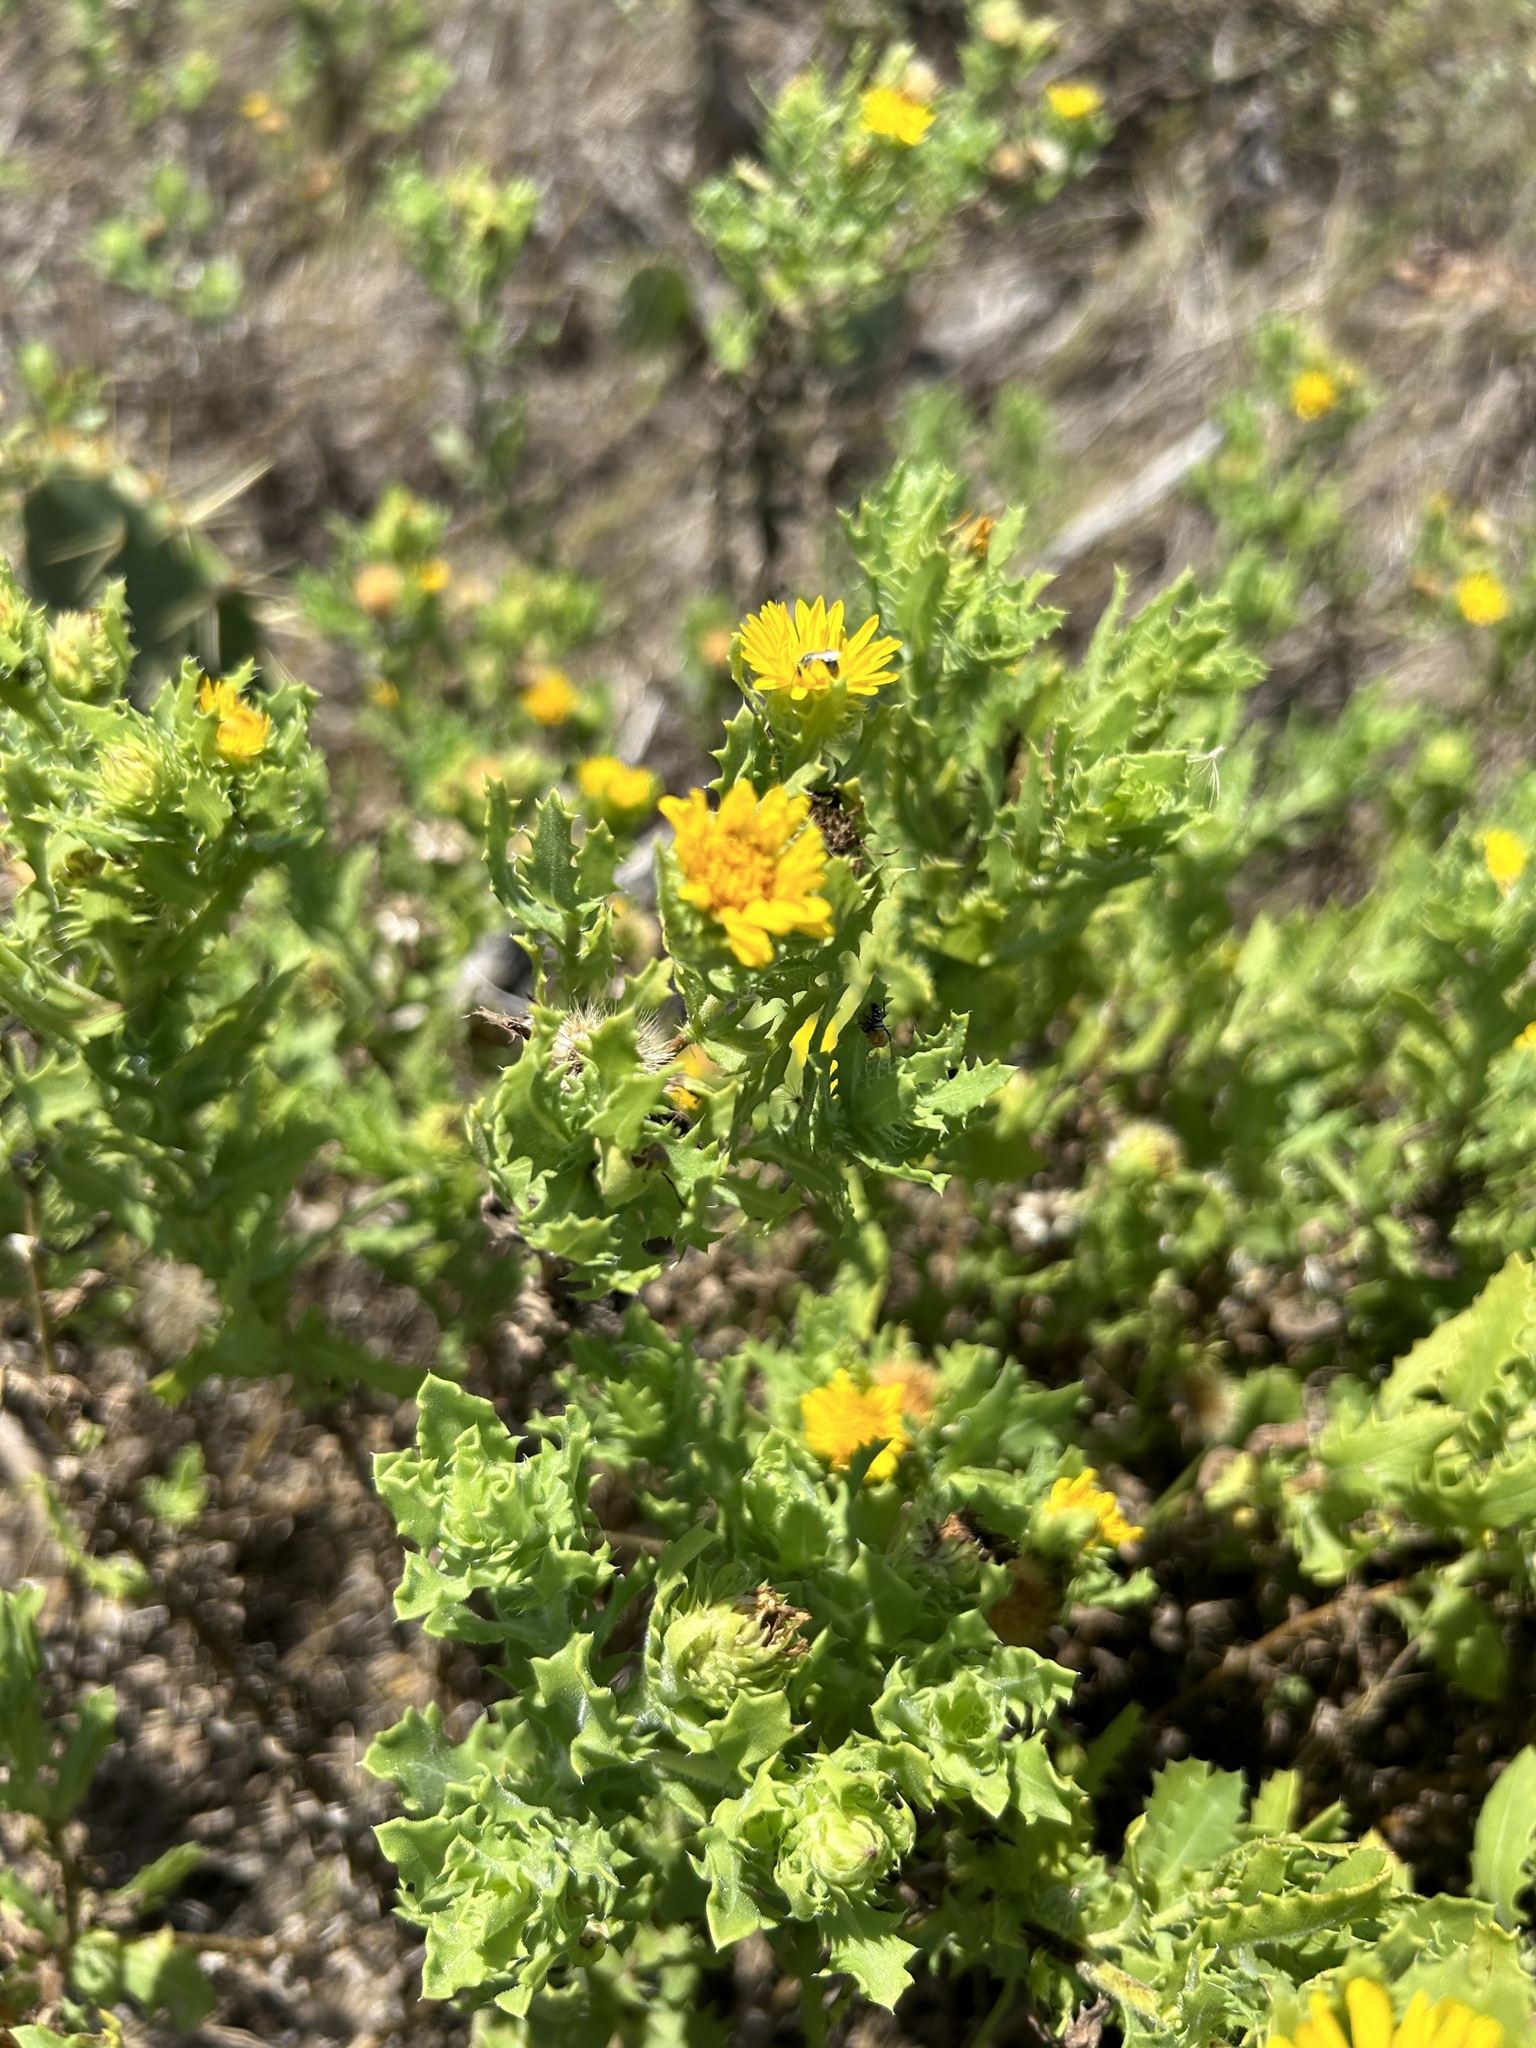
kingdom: Plantae
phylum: Tracheophyta
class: Magnoliopsida
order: Asterales
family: Asteraceae
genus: Rayjacksonia
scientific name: Rayjacksonia phyllocephala
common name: Gulf coast camphor daisy
